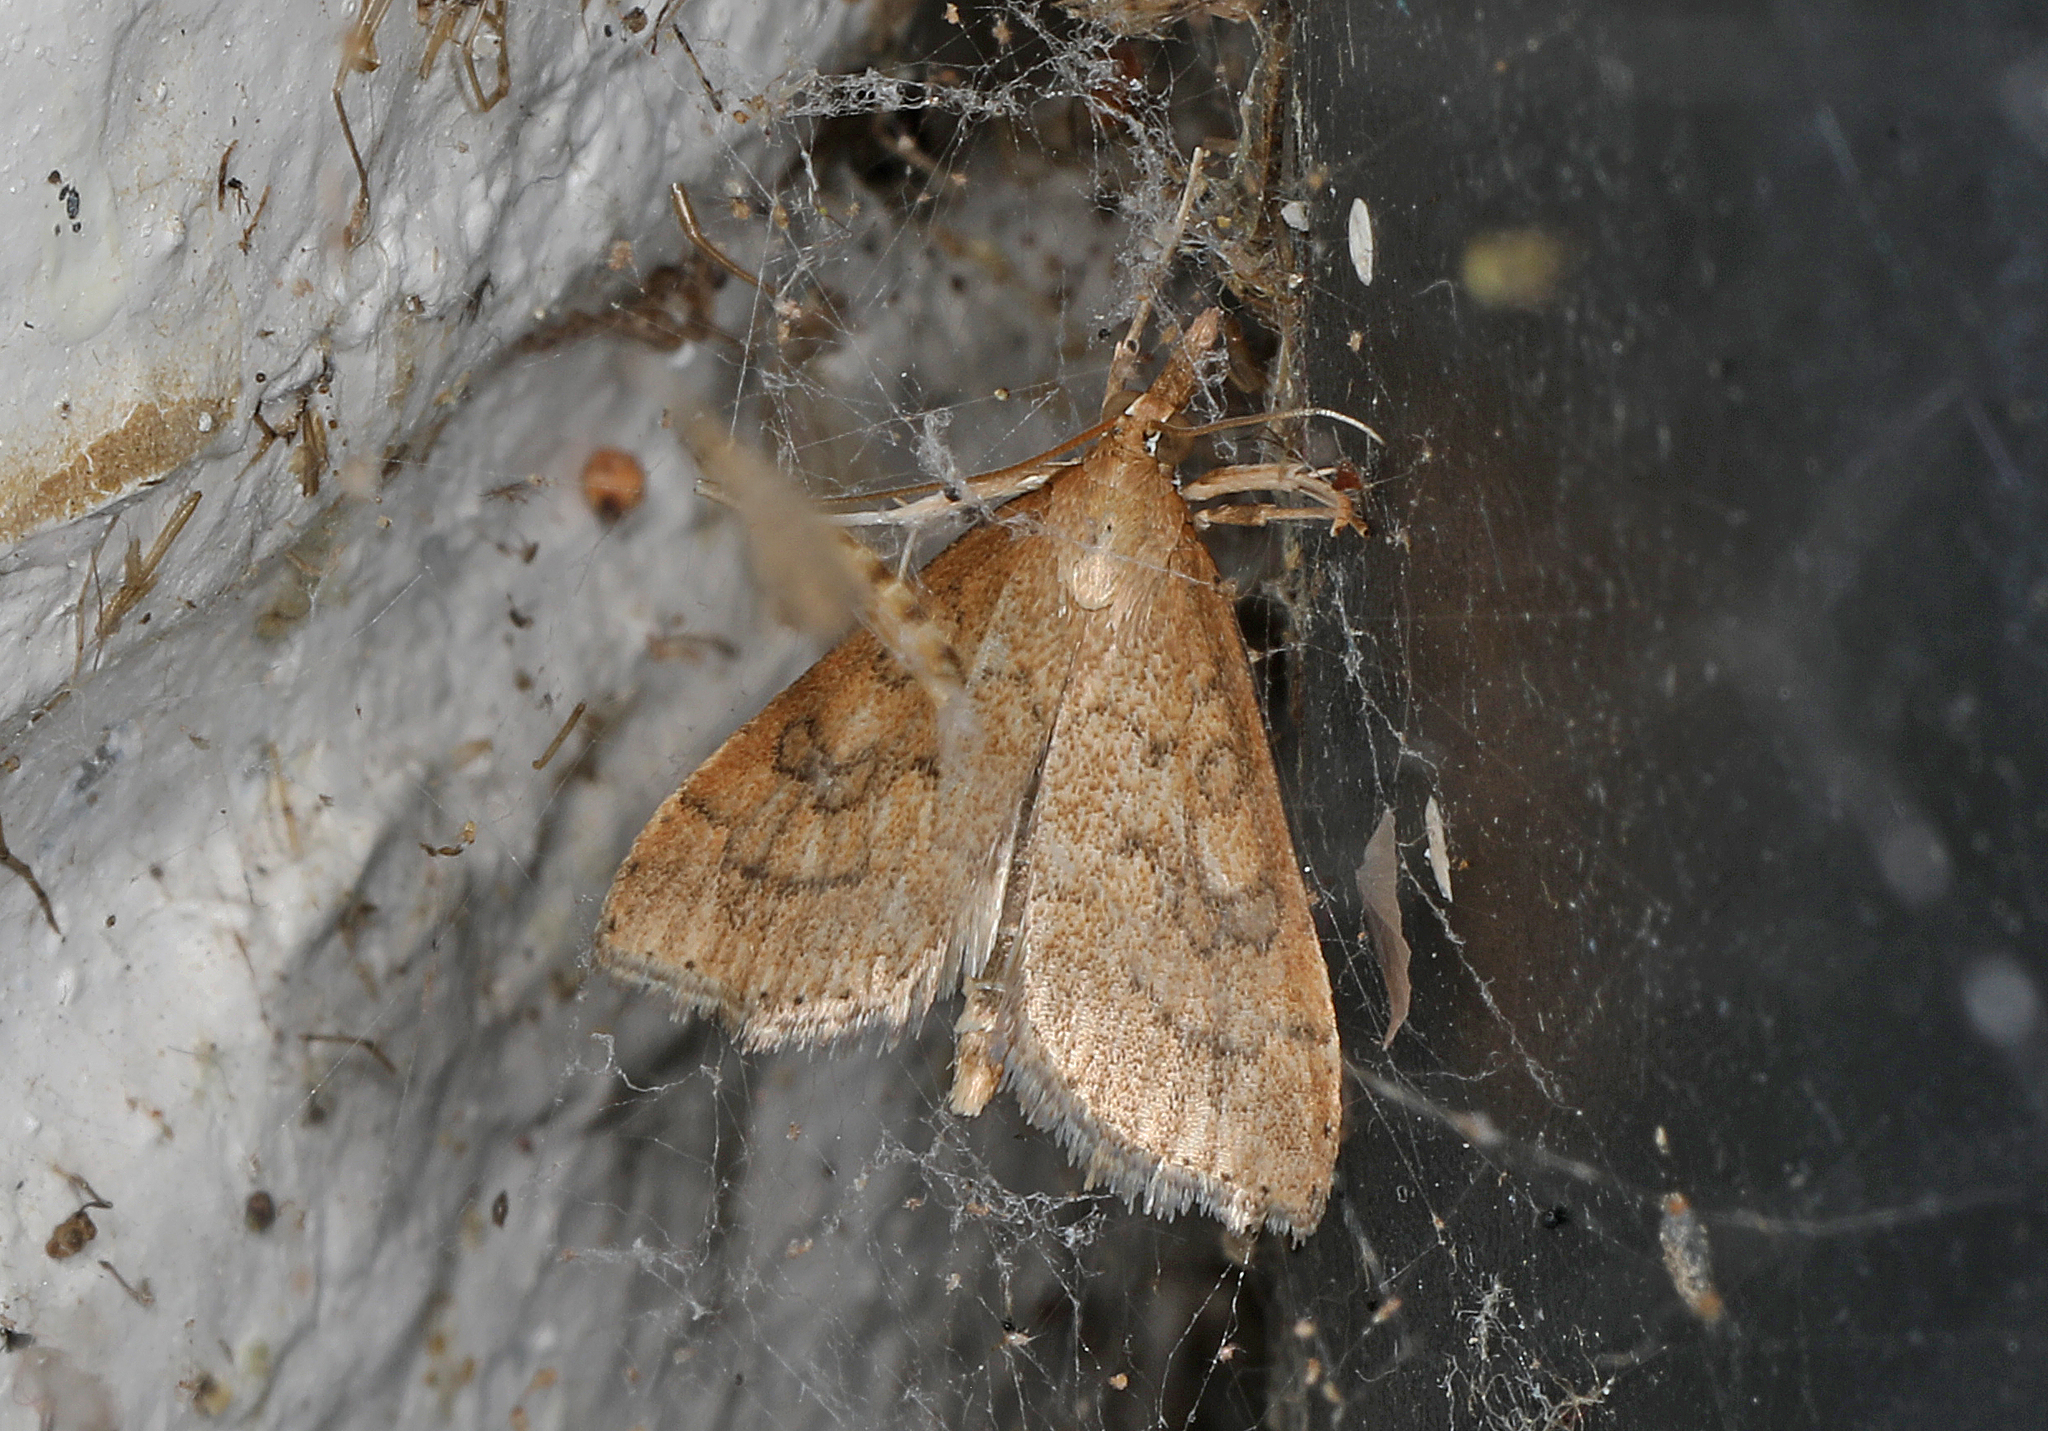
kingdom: Animalia
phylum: Arthropoda
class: Insecta
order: Lepidoptera
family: Crambidae
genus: Udea
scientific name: Udea rubigalis
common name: Celery leaftier moth
